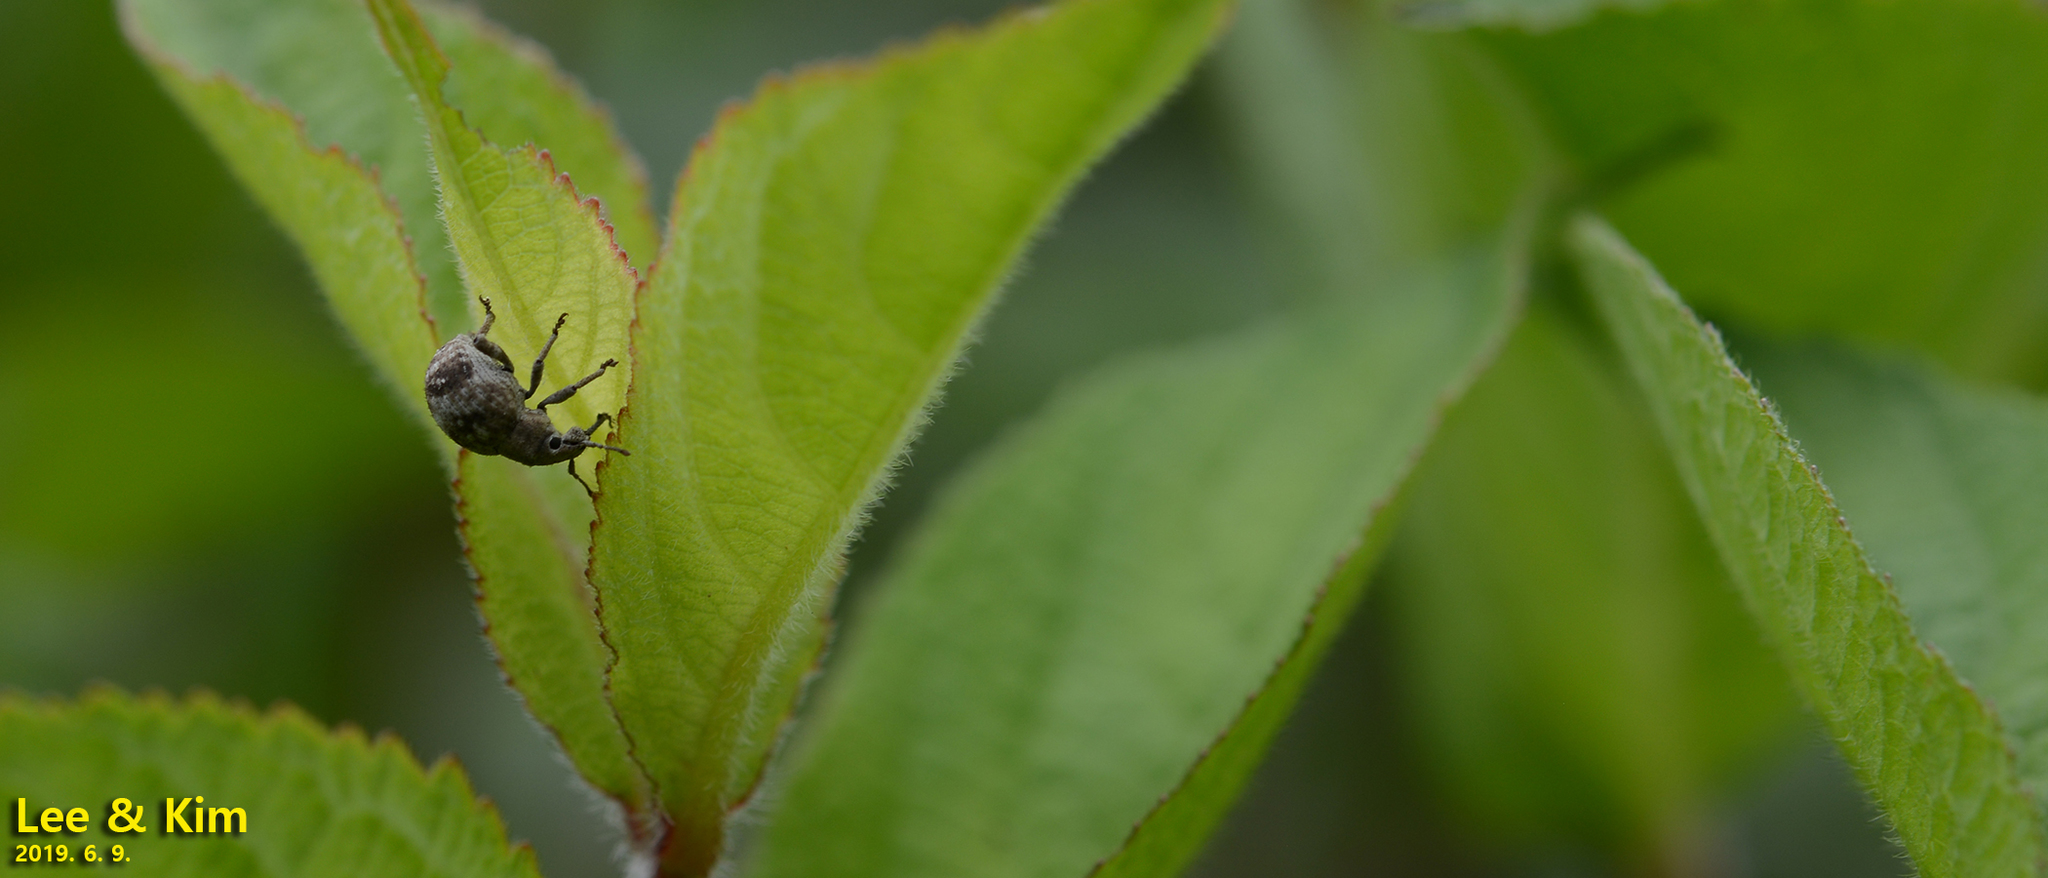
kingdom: Animalia
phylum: Arthropoda
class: Insecta
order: Coleoptera
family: Curculionidae
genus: Pseudocneorhinus
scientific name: Pseudocneorhinus bifasciatus
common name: Two-banded japanese weevil
